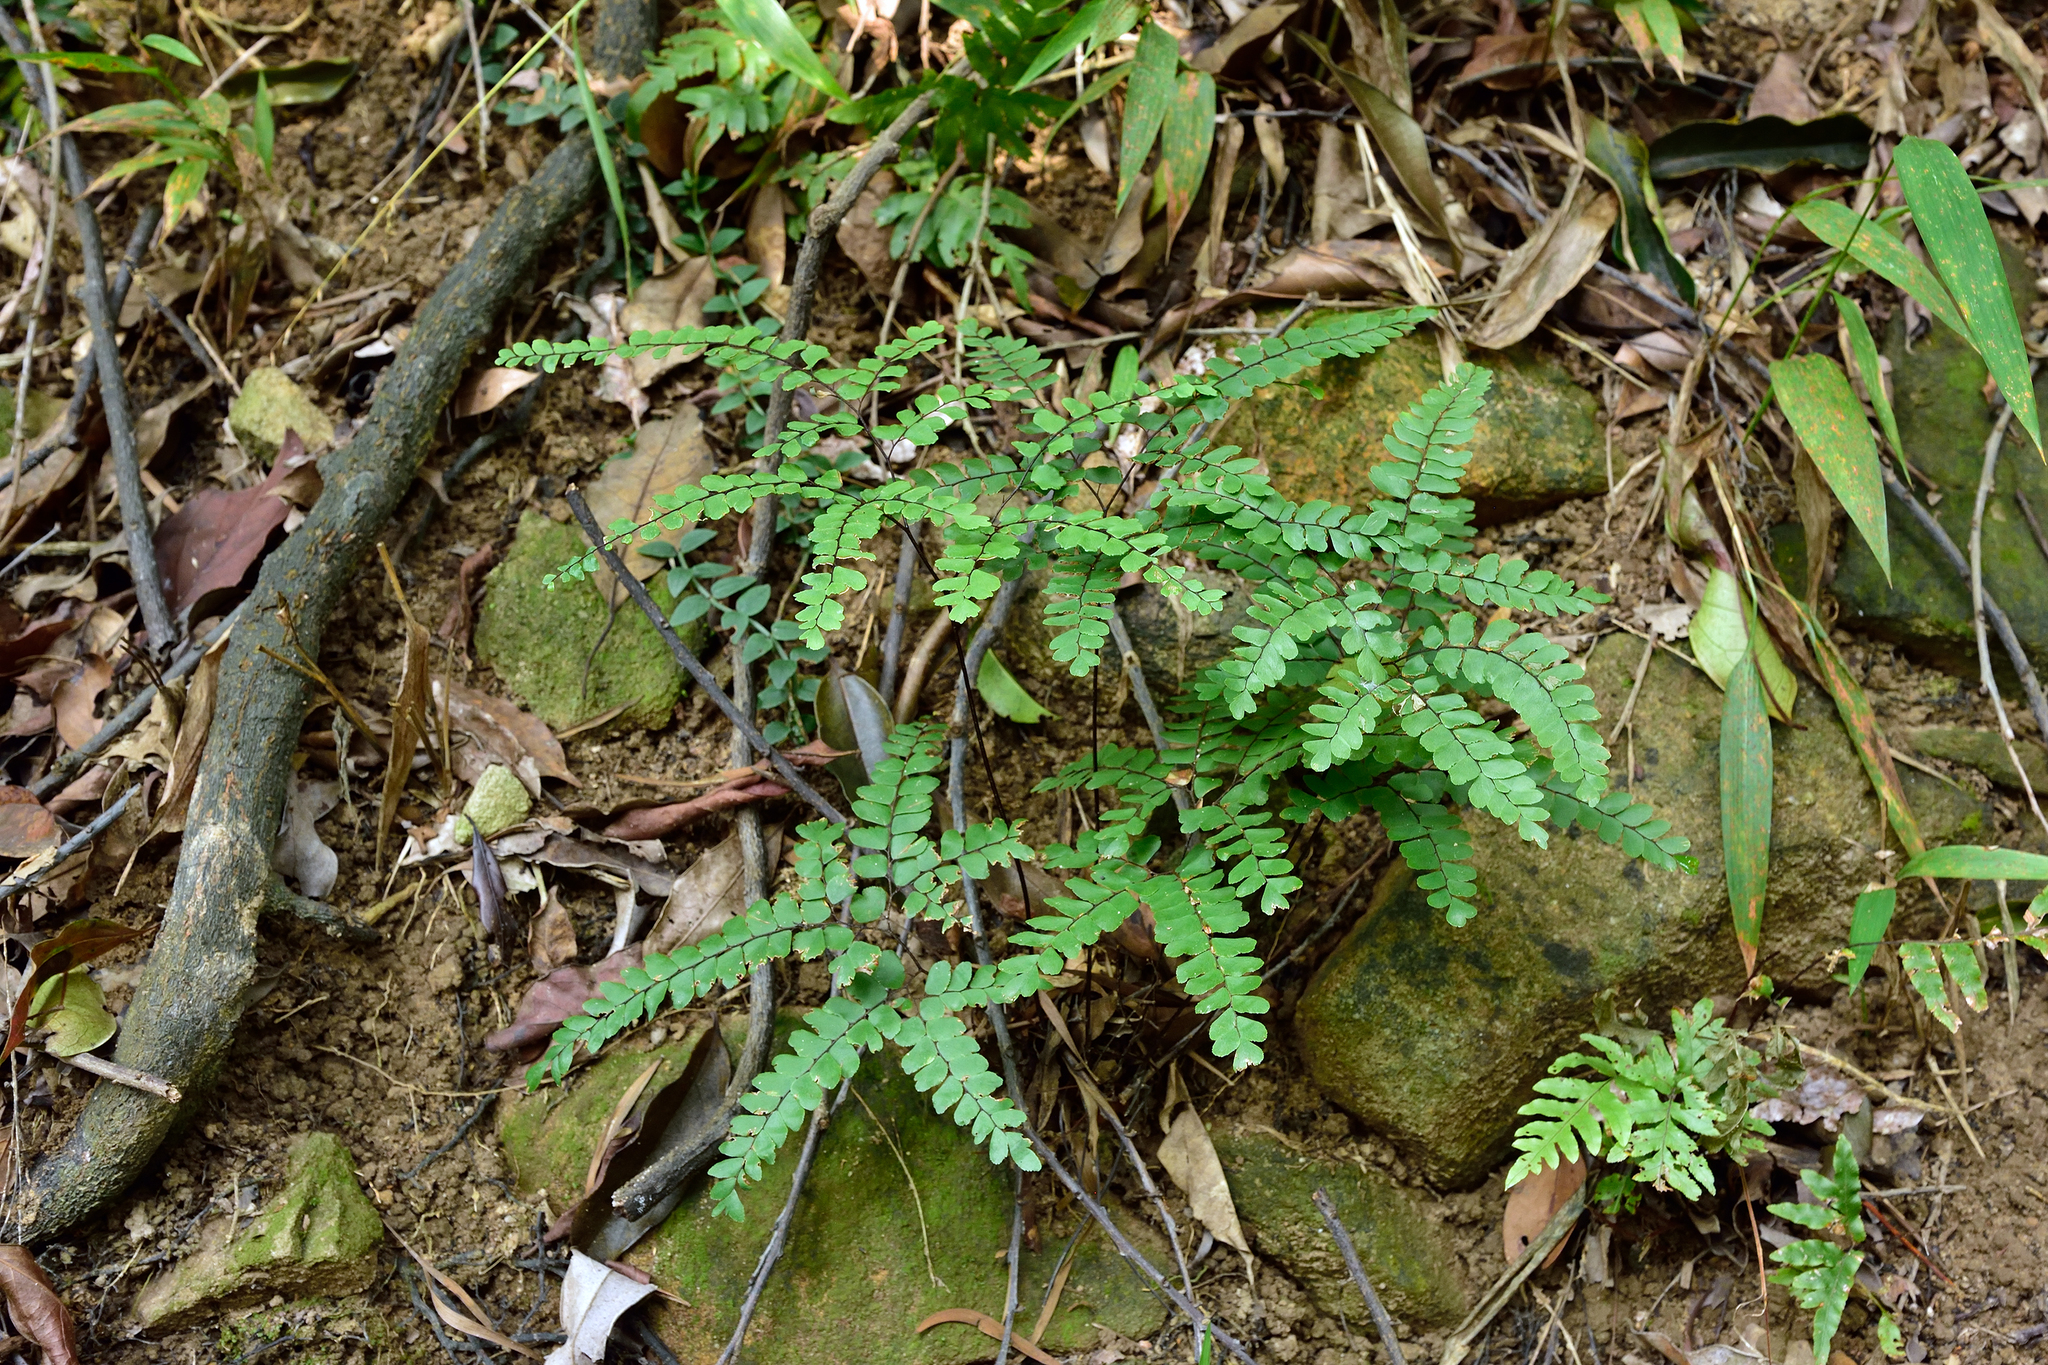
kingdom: Plantae
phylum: Tracheophyta
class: Polypodiopsida
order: Polypodiales
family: Pteridaceae
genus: Adiantum
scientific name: Adiantum flabellulatum
